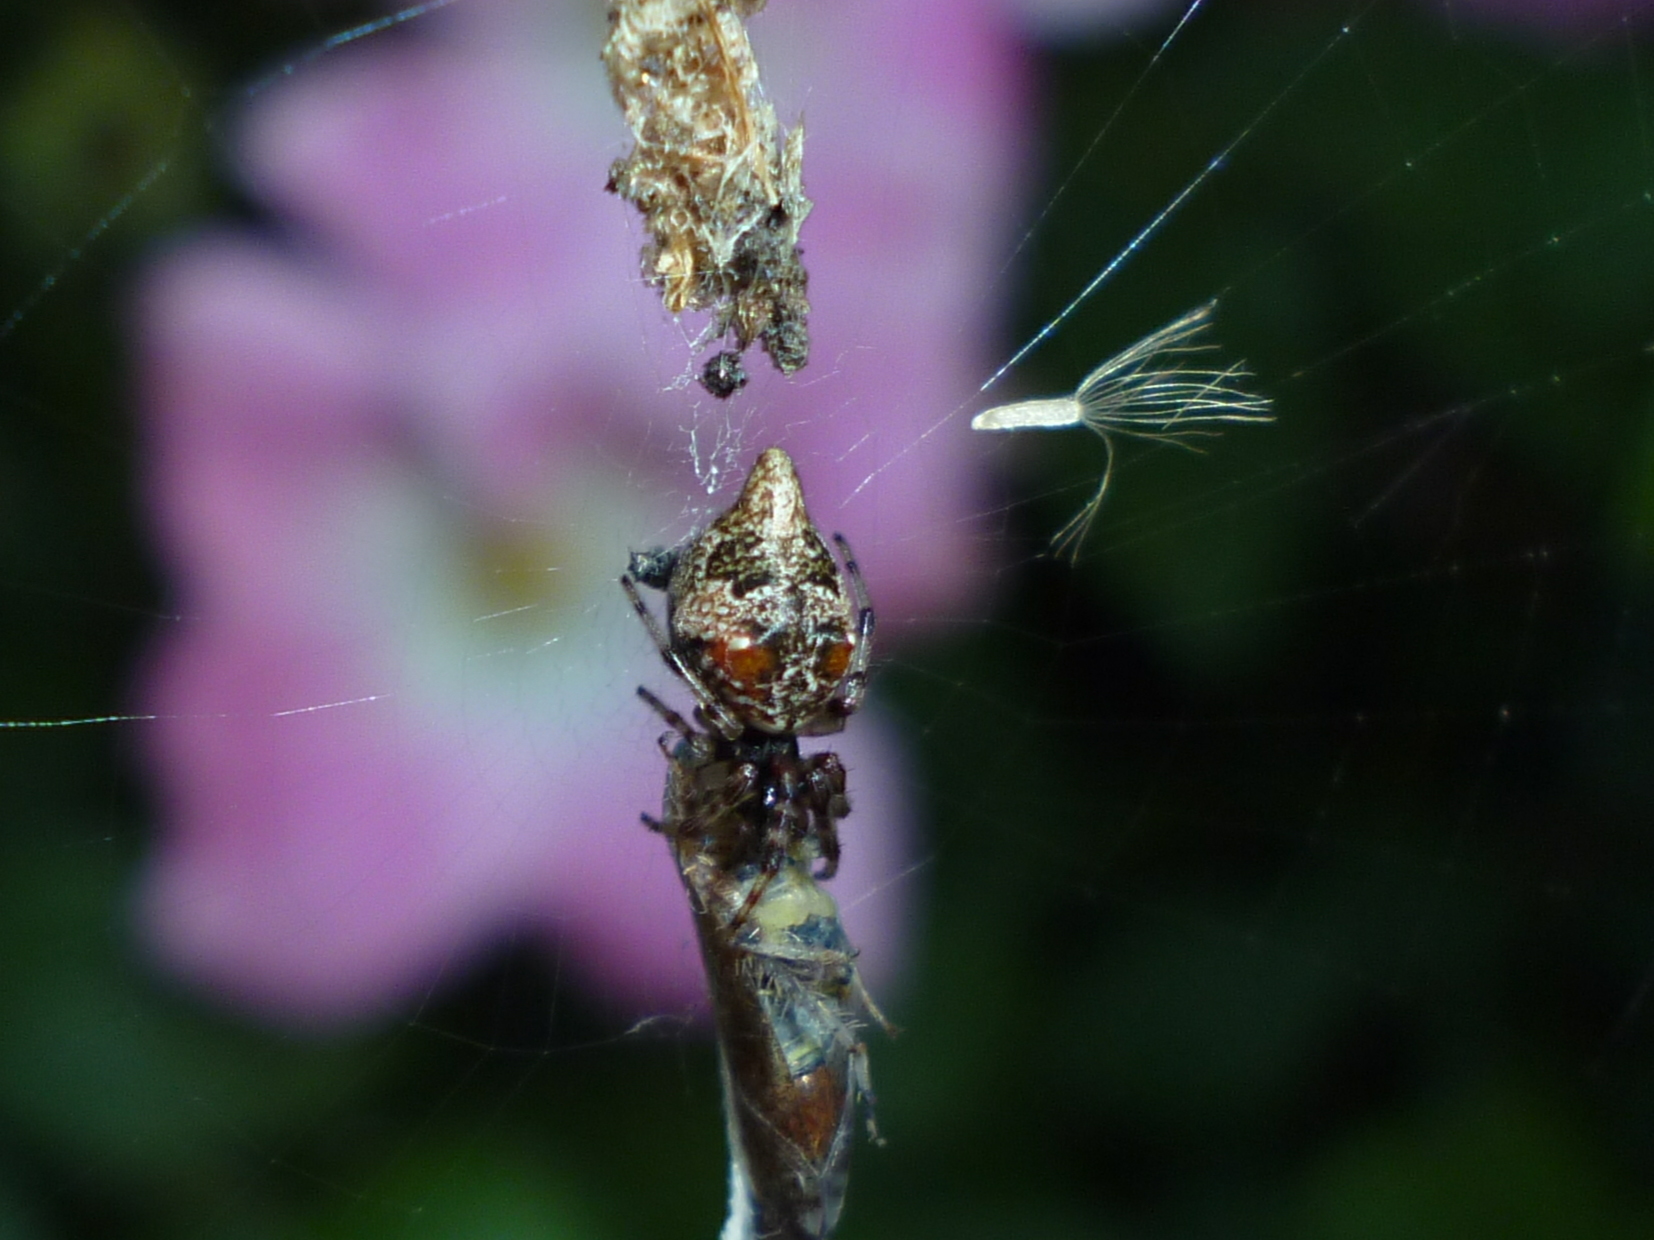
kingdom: Animalia
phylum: Arthropoda
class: Arachnida
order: Araneae
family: Araneidae
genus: Cyclosa
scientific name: Cyclosa turbinata
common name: Orb weavers
